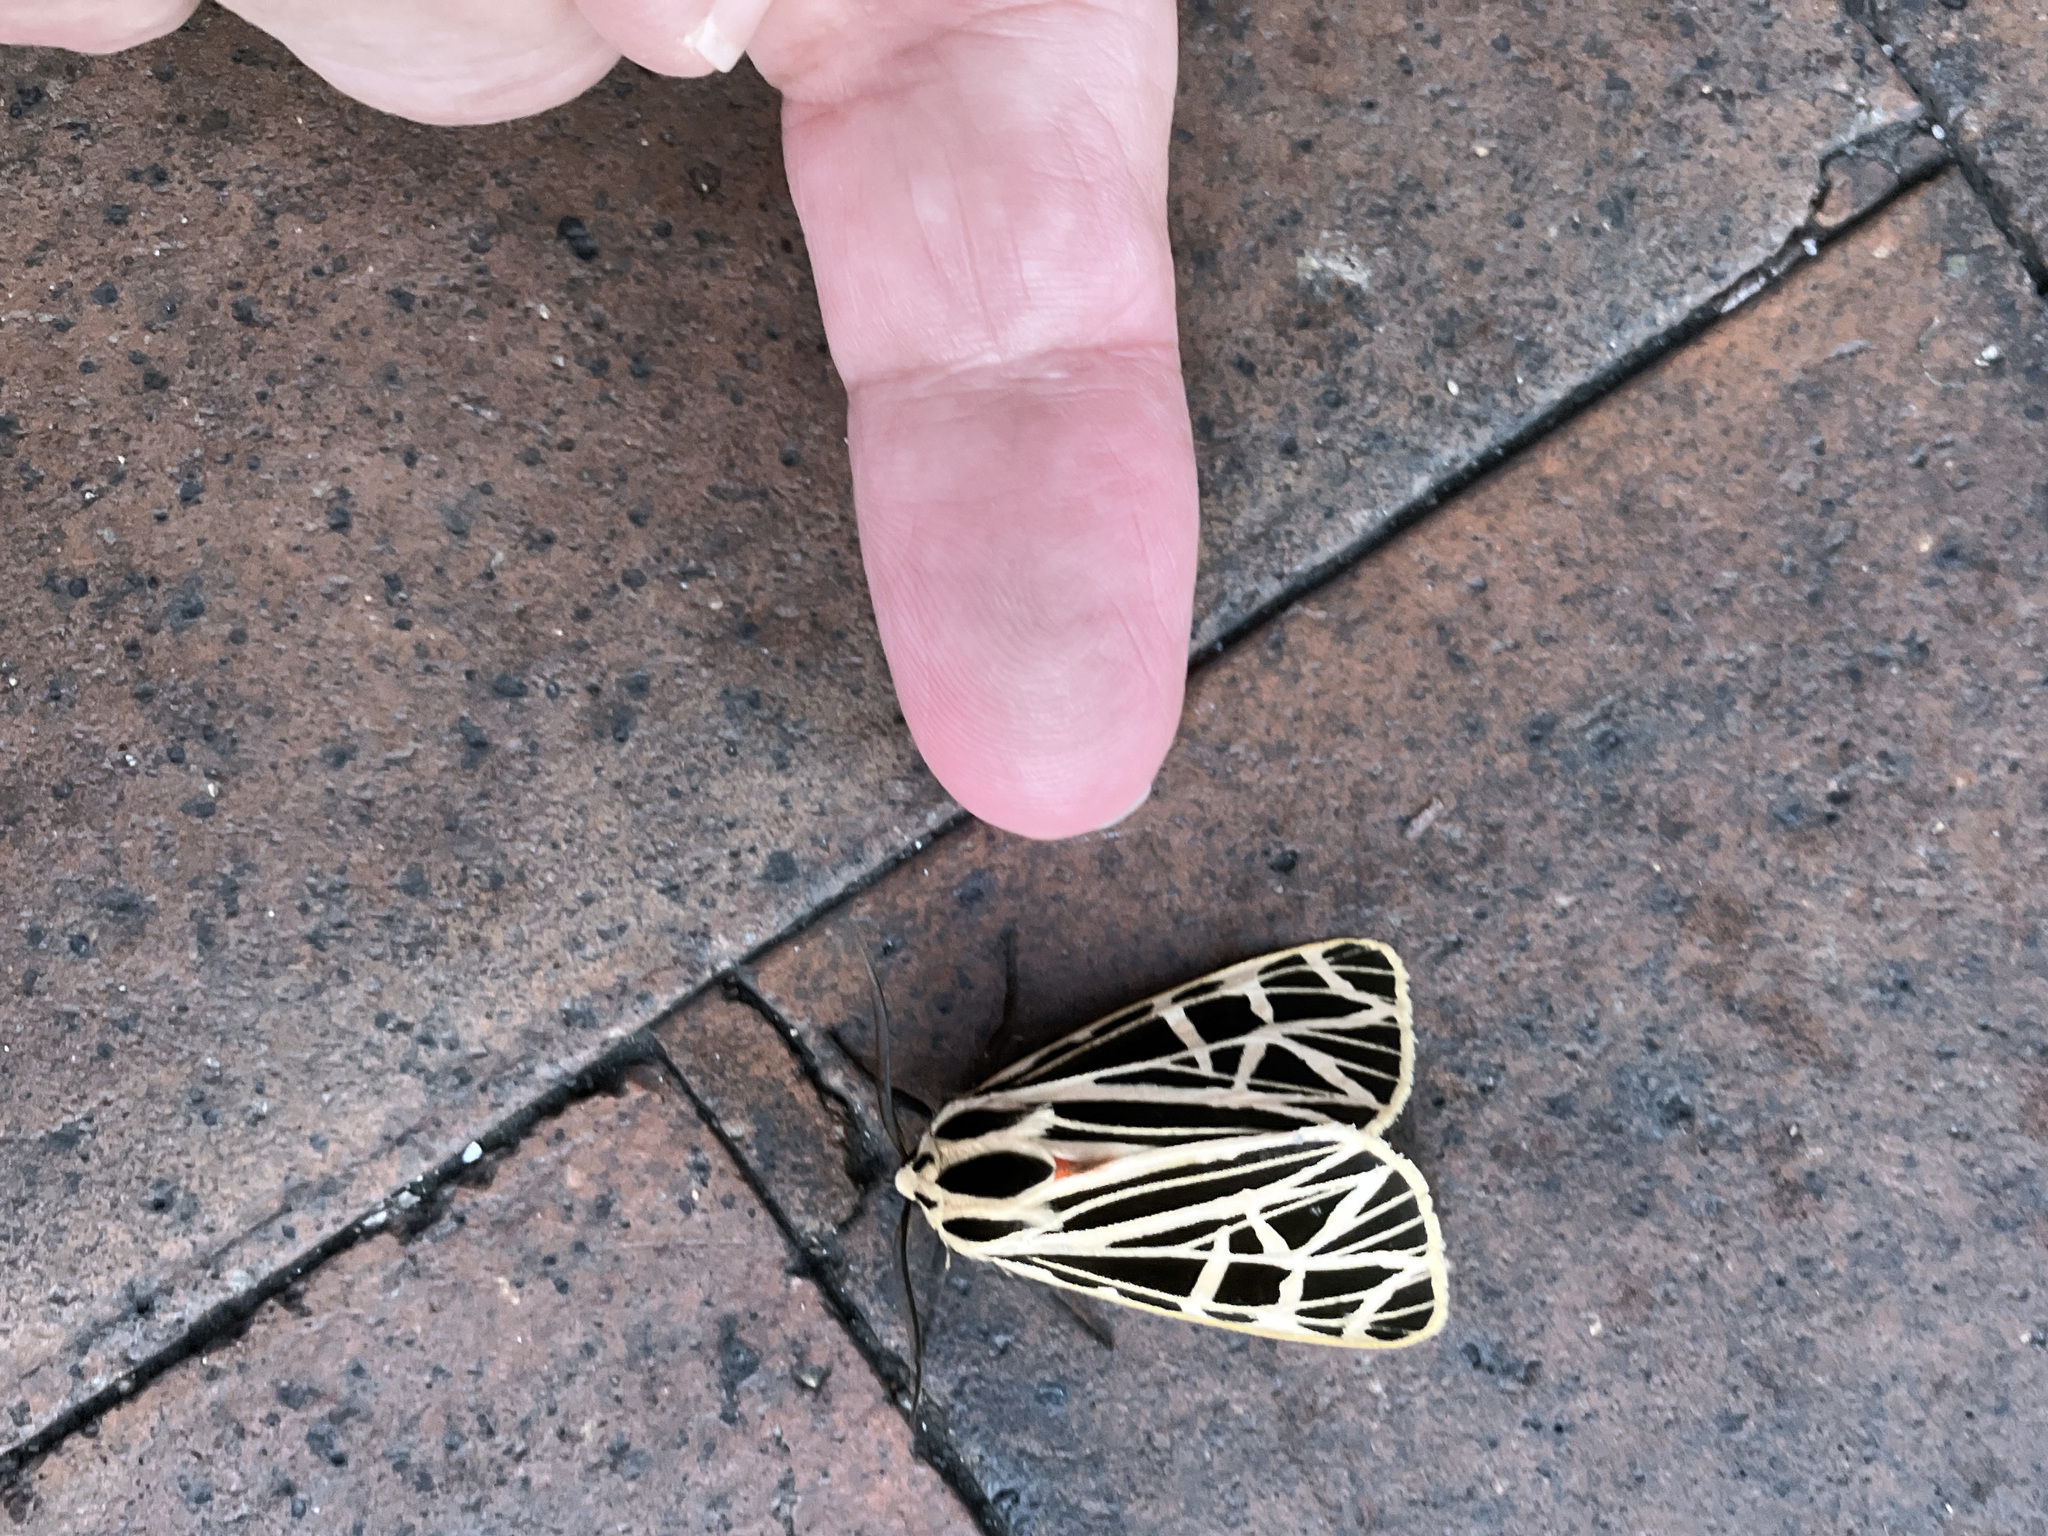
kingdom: Animalia
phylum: Arthropoda
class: Insecta
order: Lepidoptera
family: Erebidae
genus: Grammia
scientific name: Grammia virgo
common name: Virgin tiger moth
